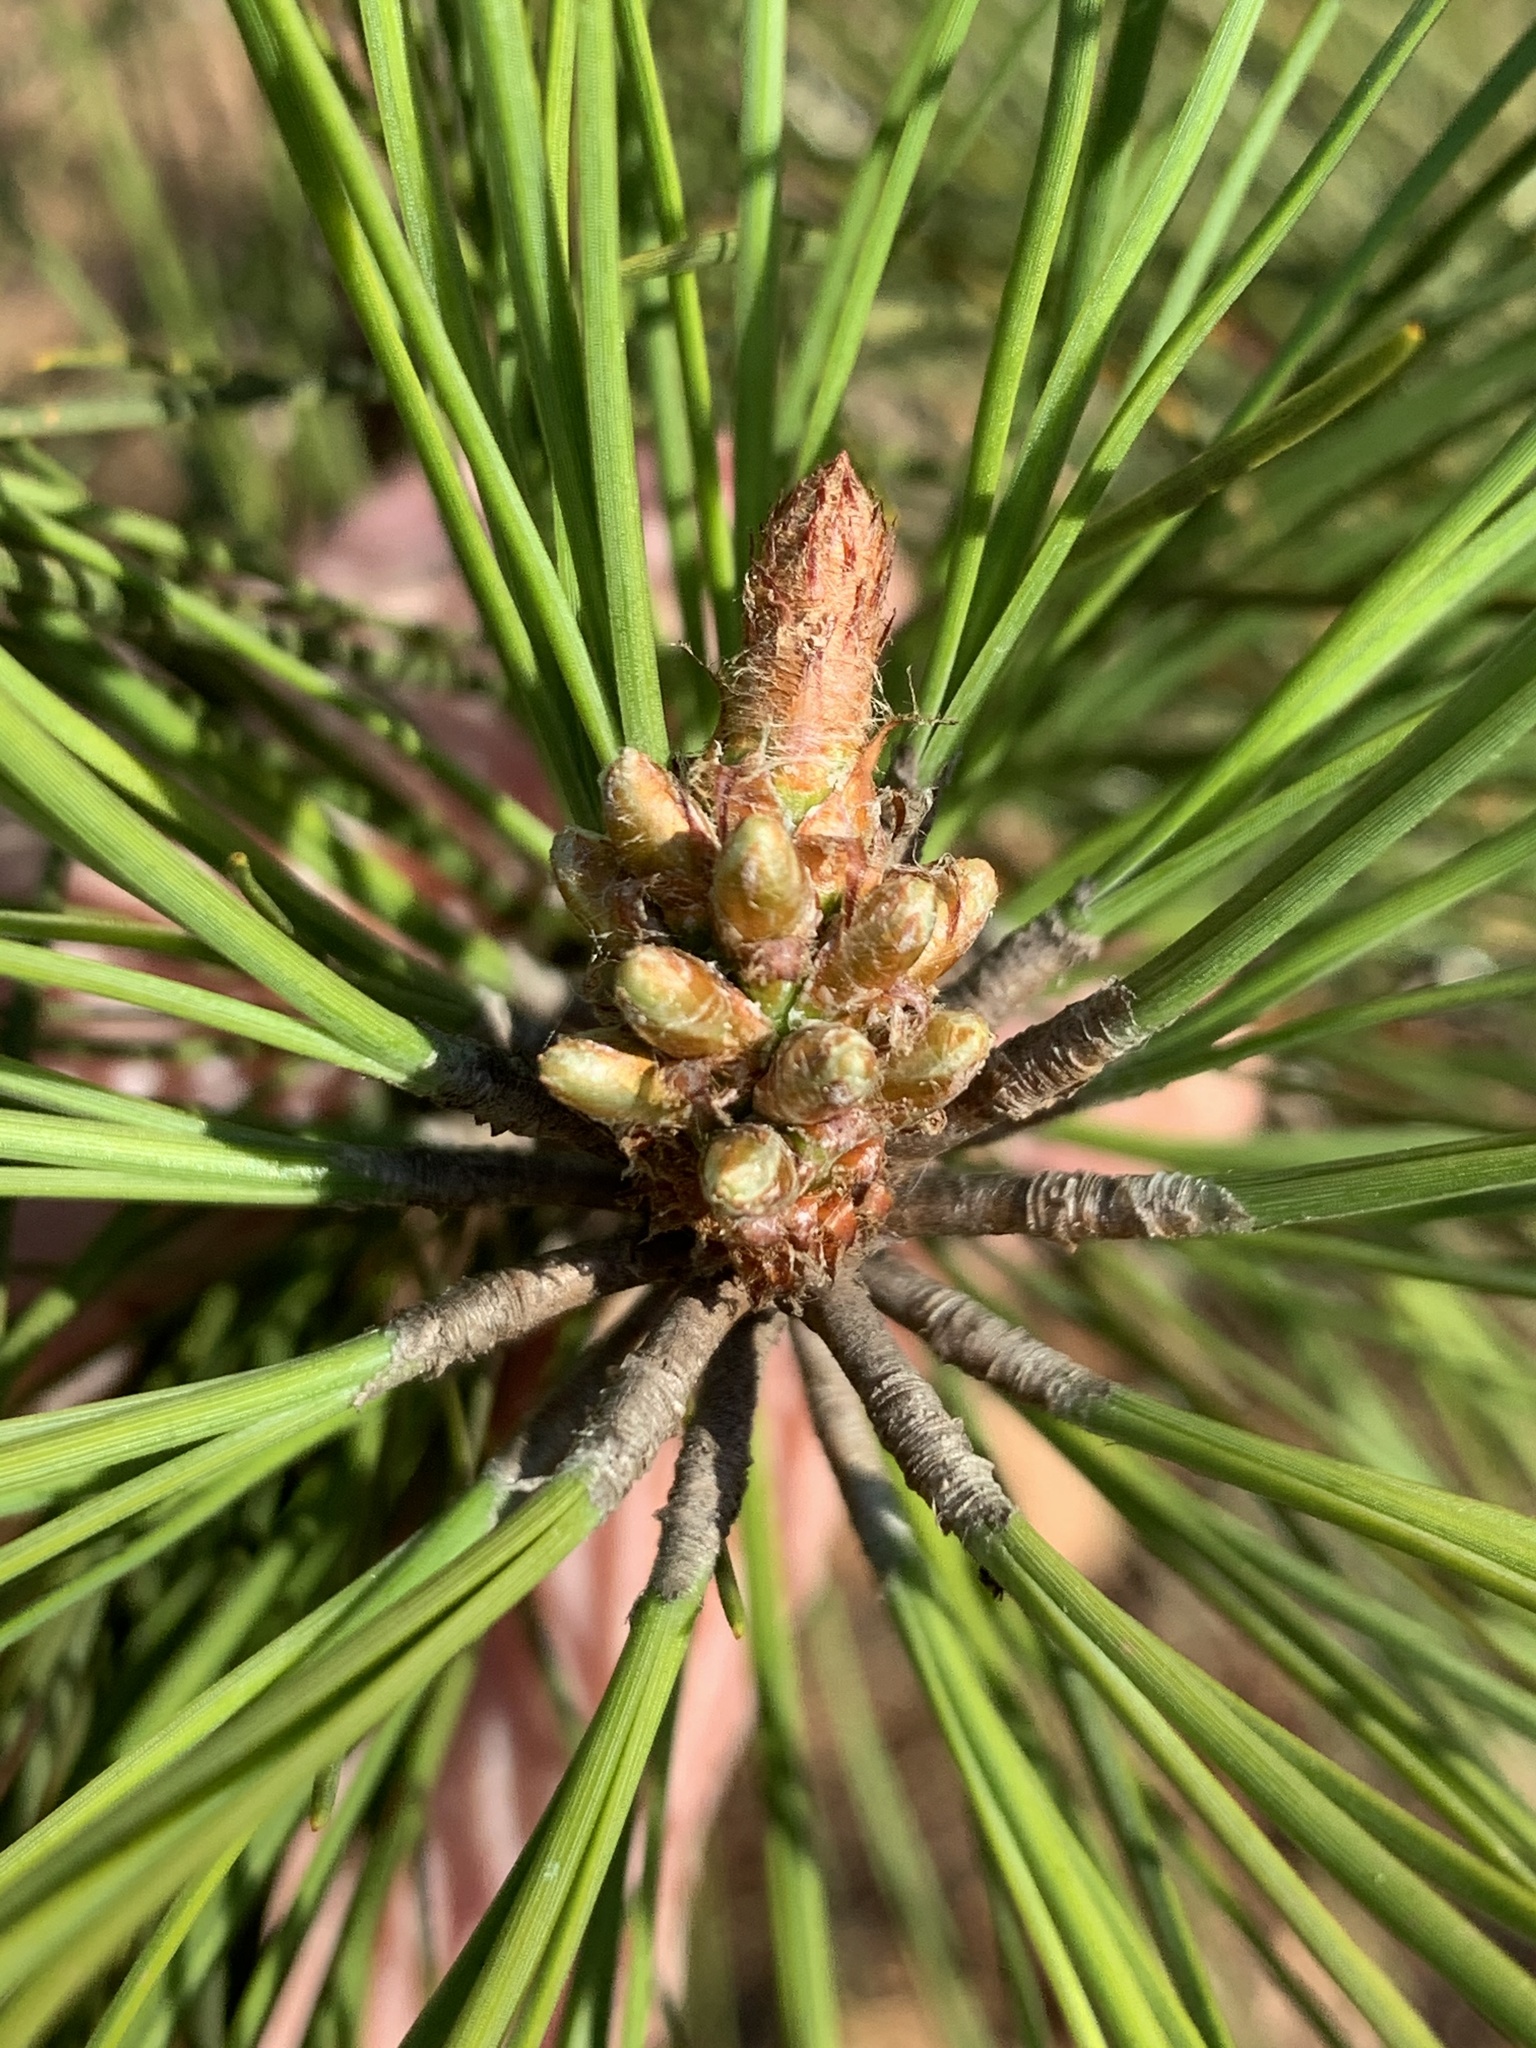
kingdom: Plantae
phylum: Tracheophyta
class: Pinopsida
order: Pinales
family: Pinaceae
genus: Pinus
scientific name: Pinus taeda
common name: Loblolly pine
